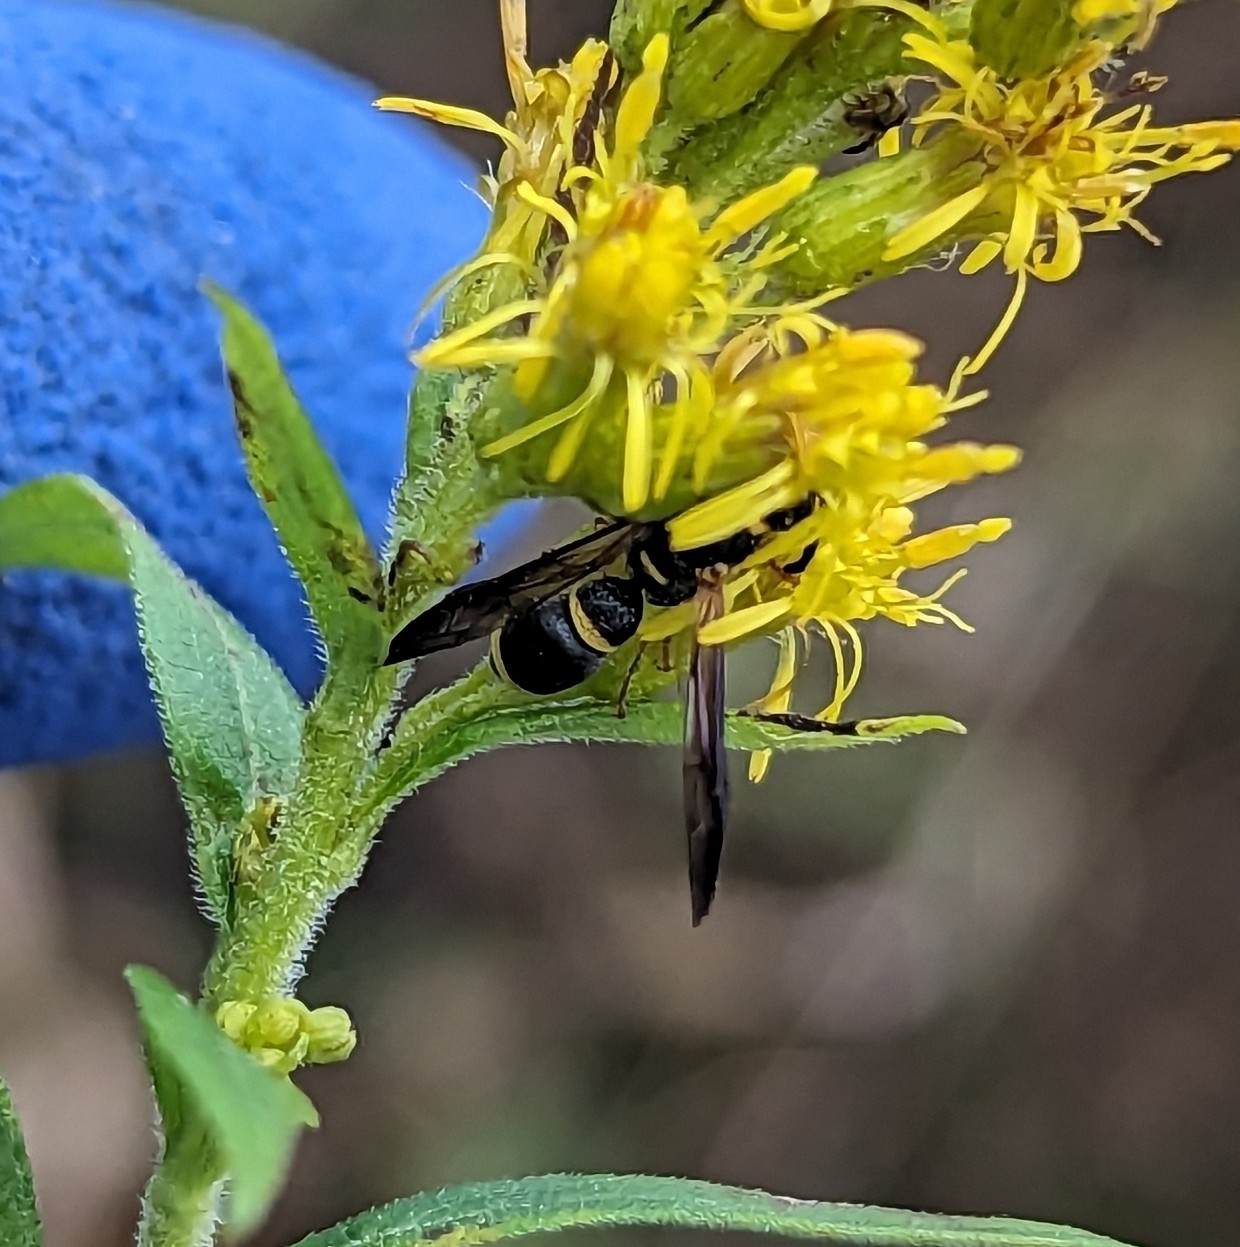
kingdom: Animalia
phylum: Arthropoda
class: Insecta
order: Hymenoptera
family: Eumenidae
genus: Parancistrocerus
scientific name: Parancistrocerus perennis
